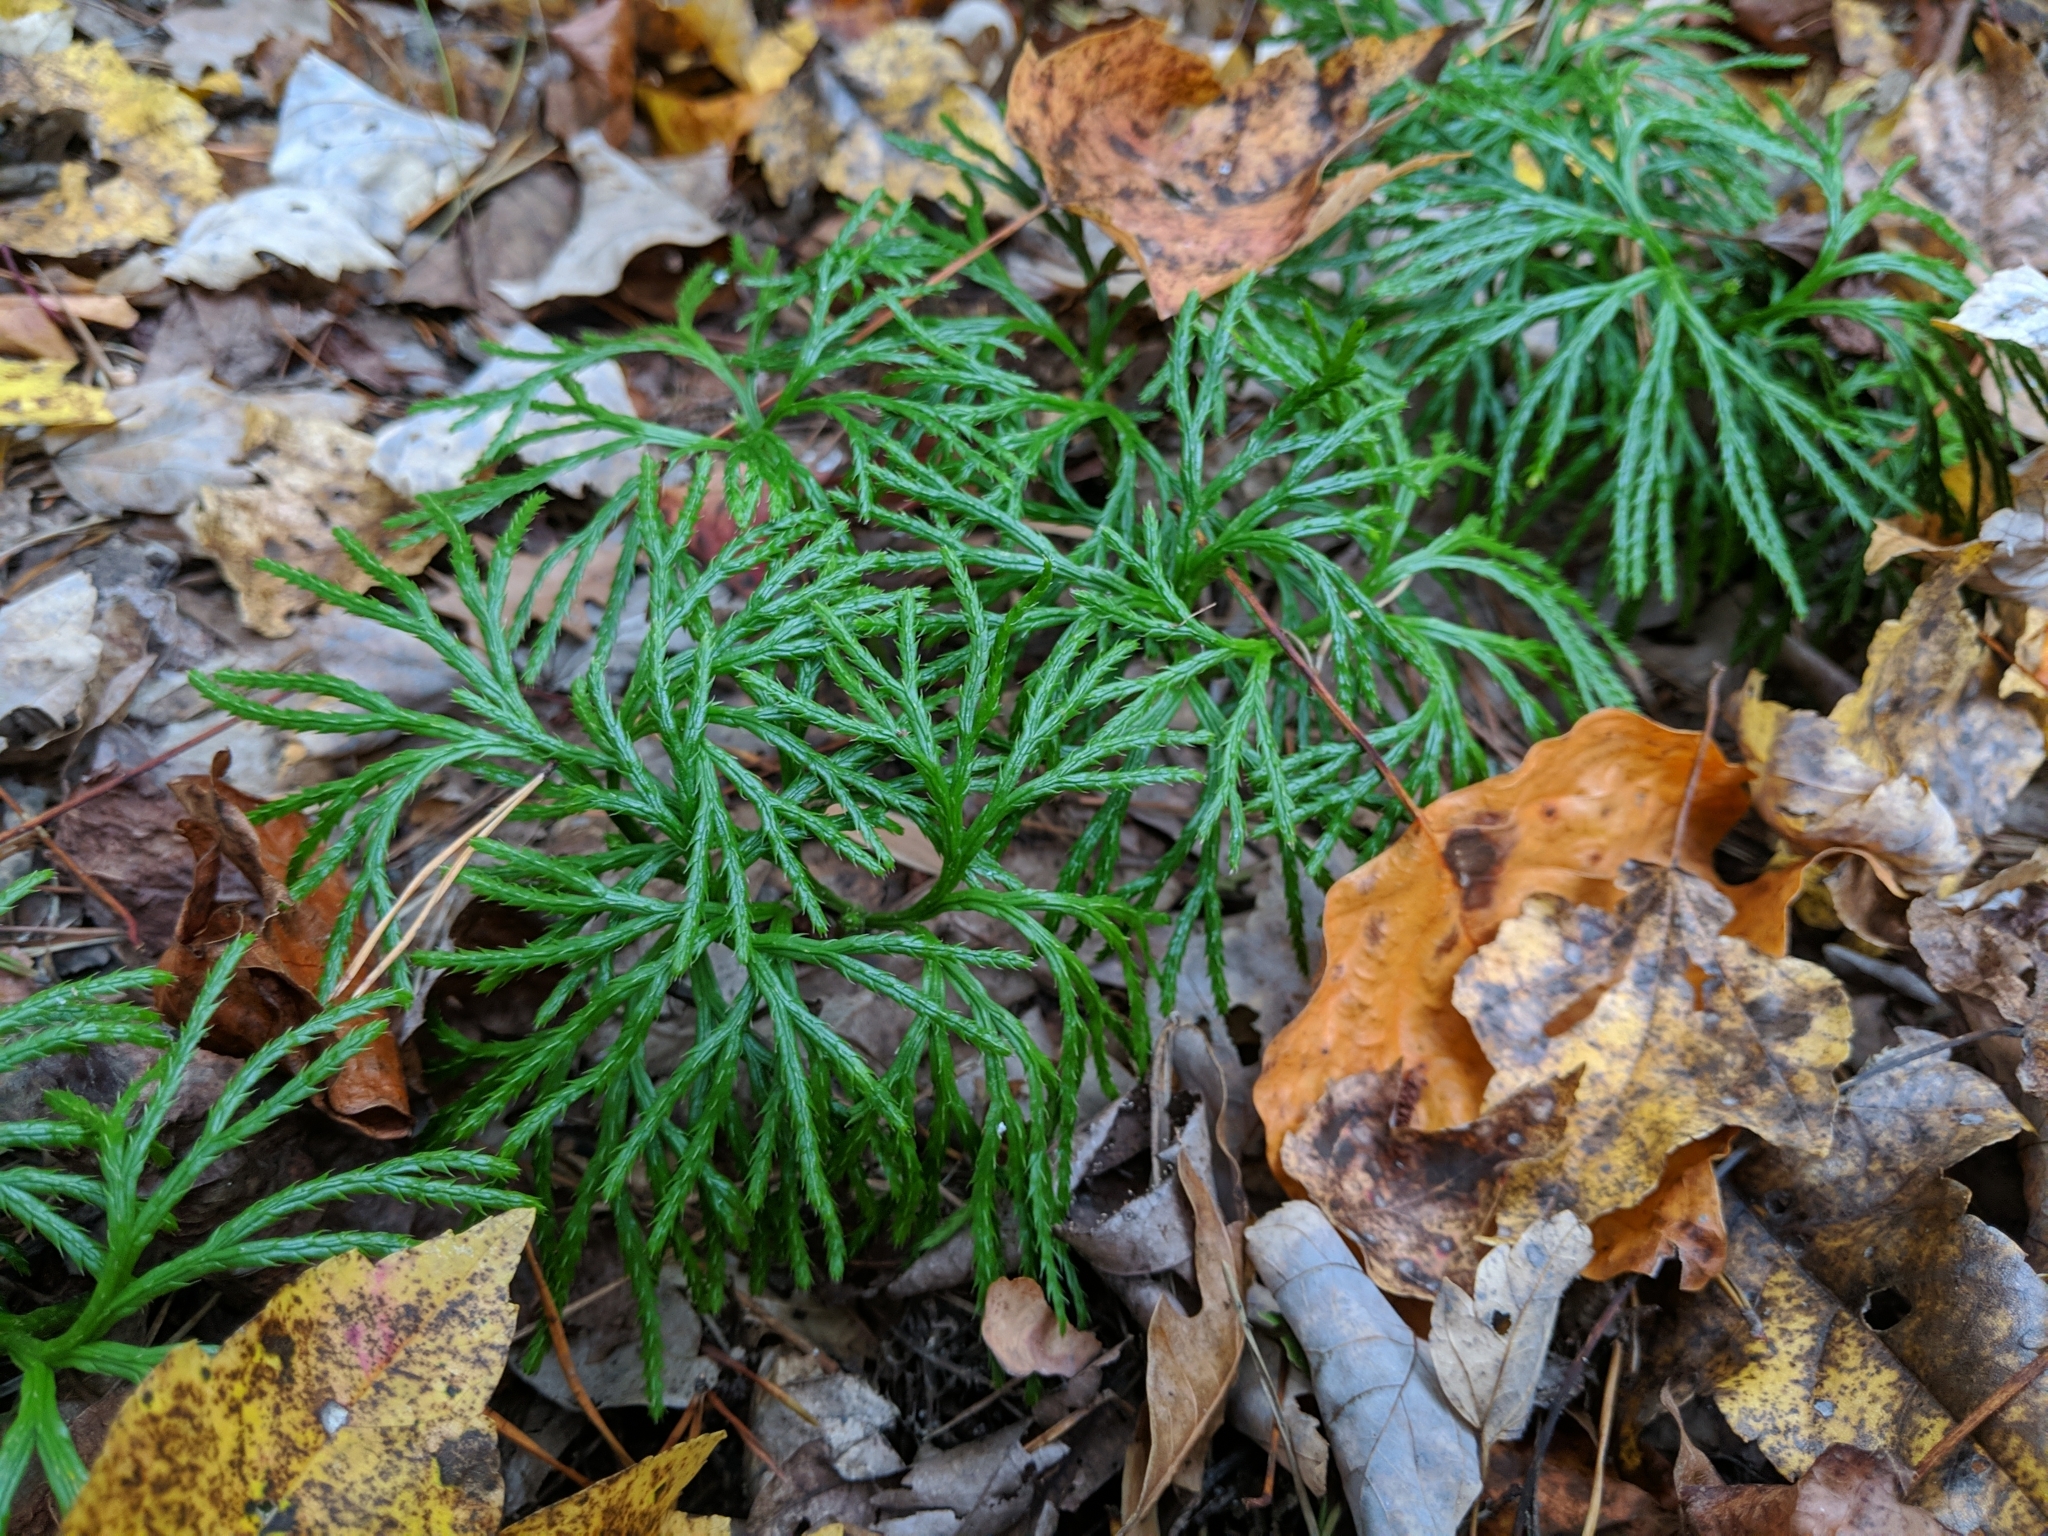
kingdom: Plantae
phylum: Tracheophyta
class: Lycopodiopsida
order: Lycopodiales
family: Lycopodiaceae
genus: Diphasiastrum
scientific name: Diphasiastrum digitatum
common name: Southern running-pine
